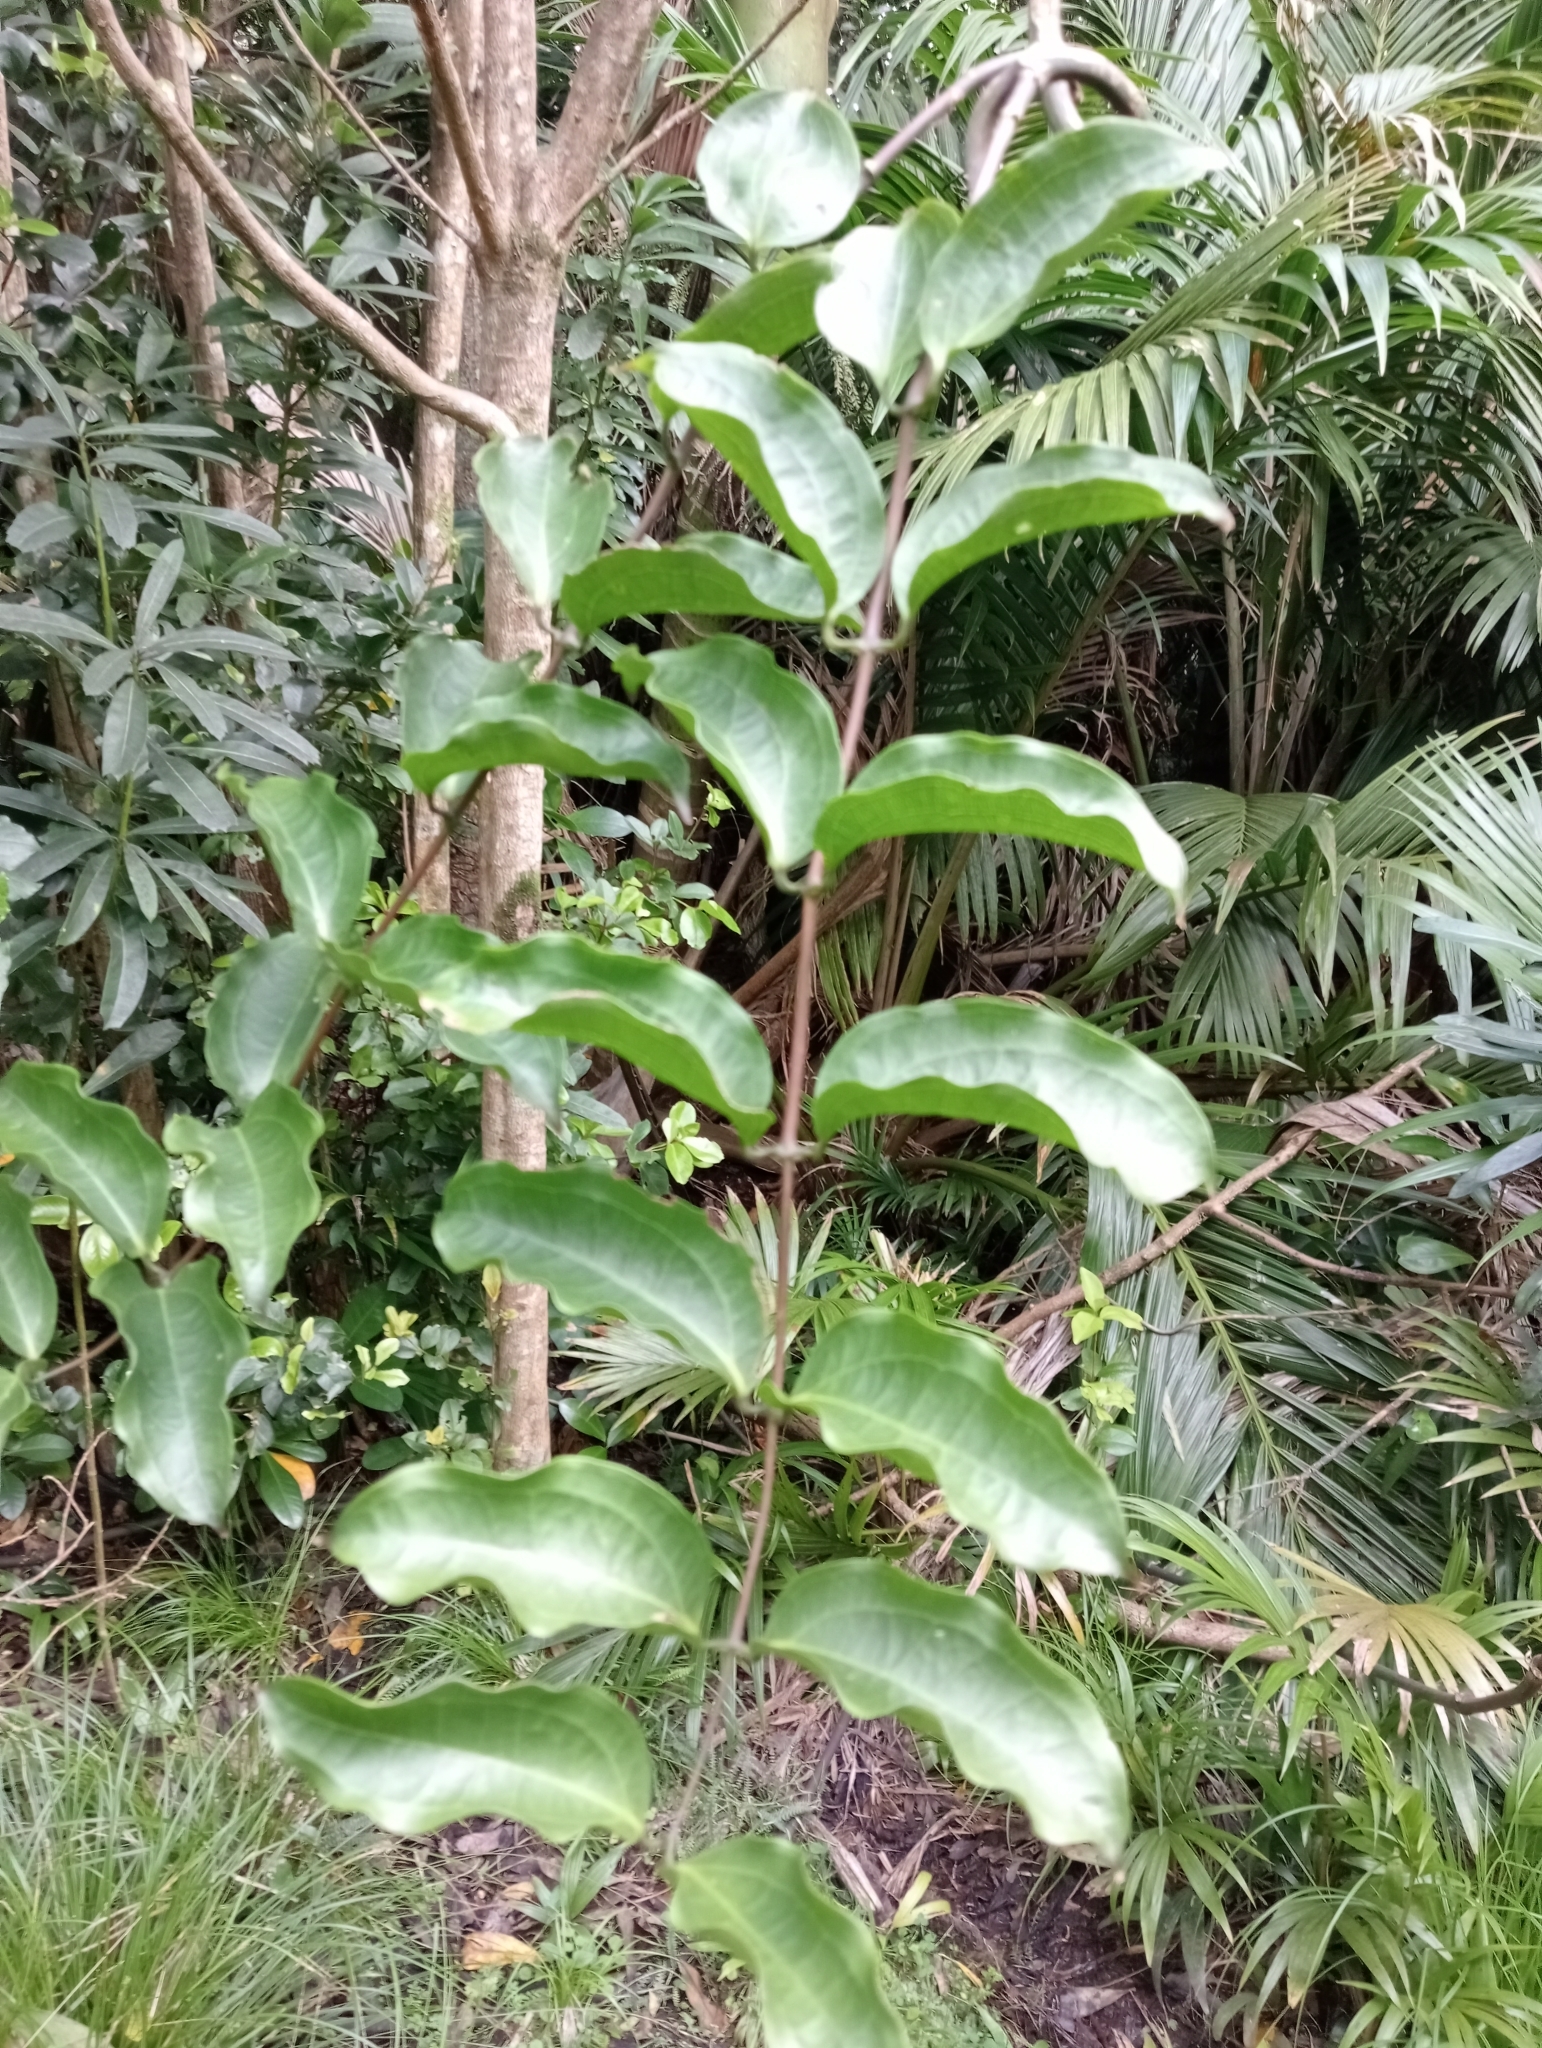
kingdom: Plantae
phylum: Tracheophyta
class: Liliopsida
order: Liliales
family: Ripogonaceae
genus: Ripogonum
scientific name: Ripogonum scandens
